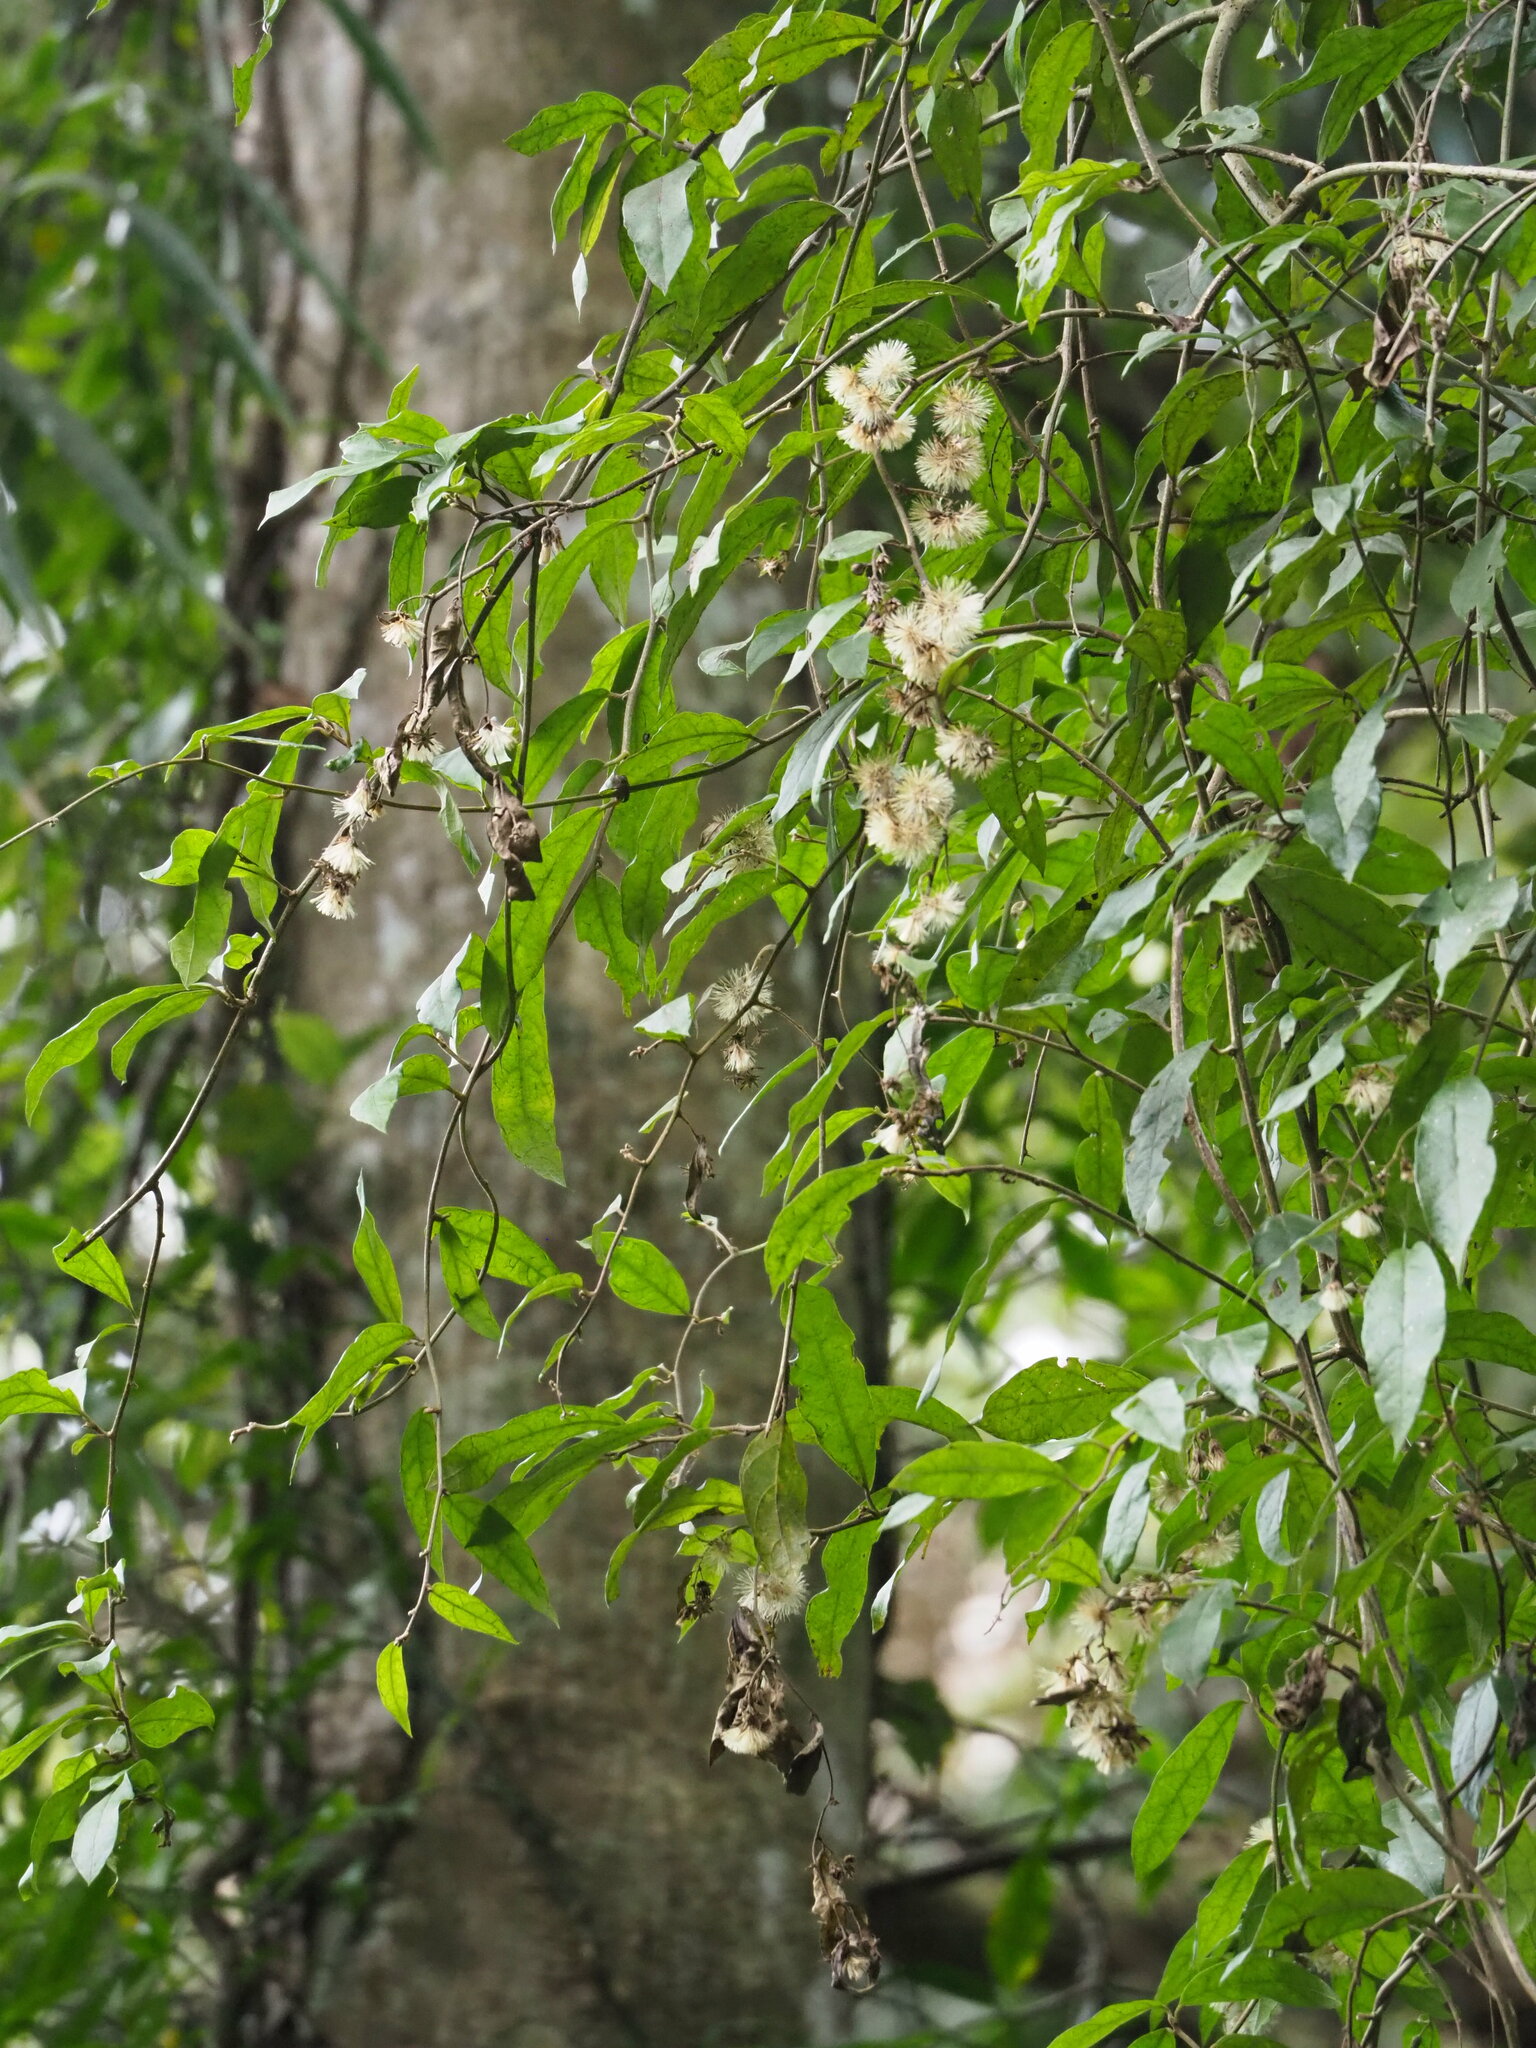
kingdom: Plantae
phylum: Tracheophyta
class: Magnoliopsida
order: Asterales
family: Asteraceae
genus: Decaneuropsis
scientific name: Decaneuropsis gratiosa
